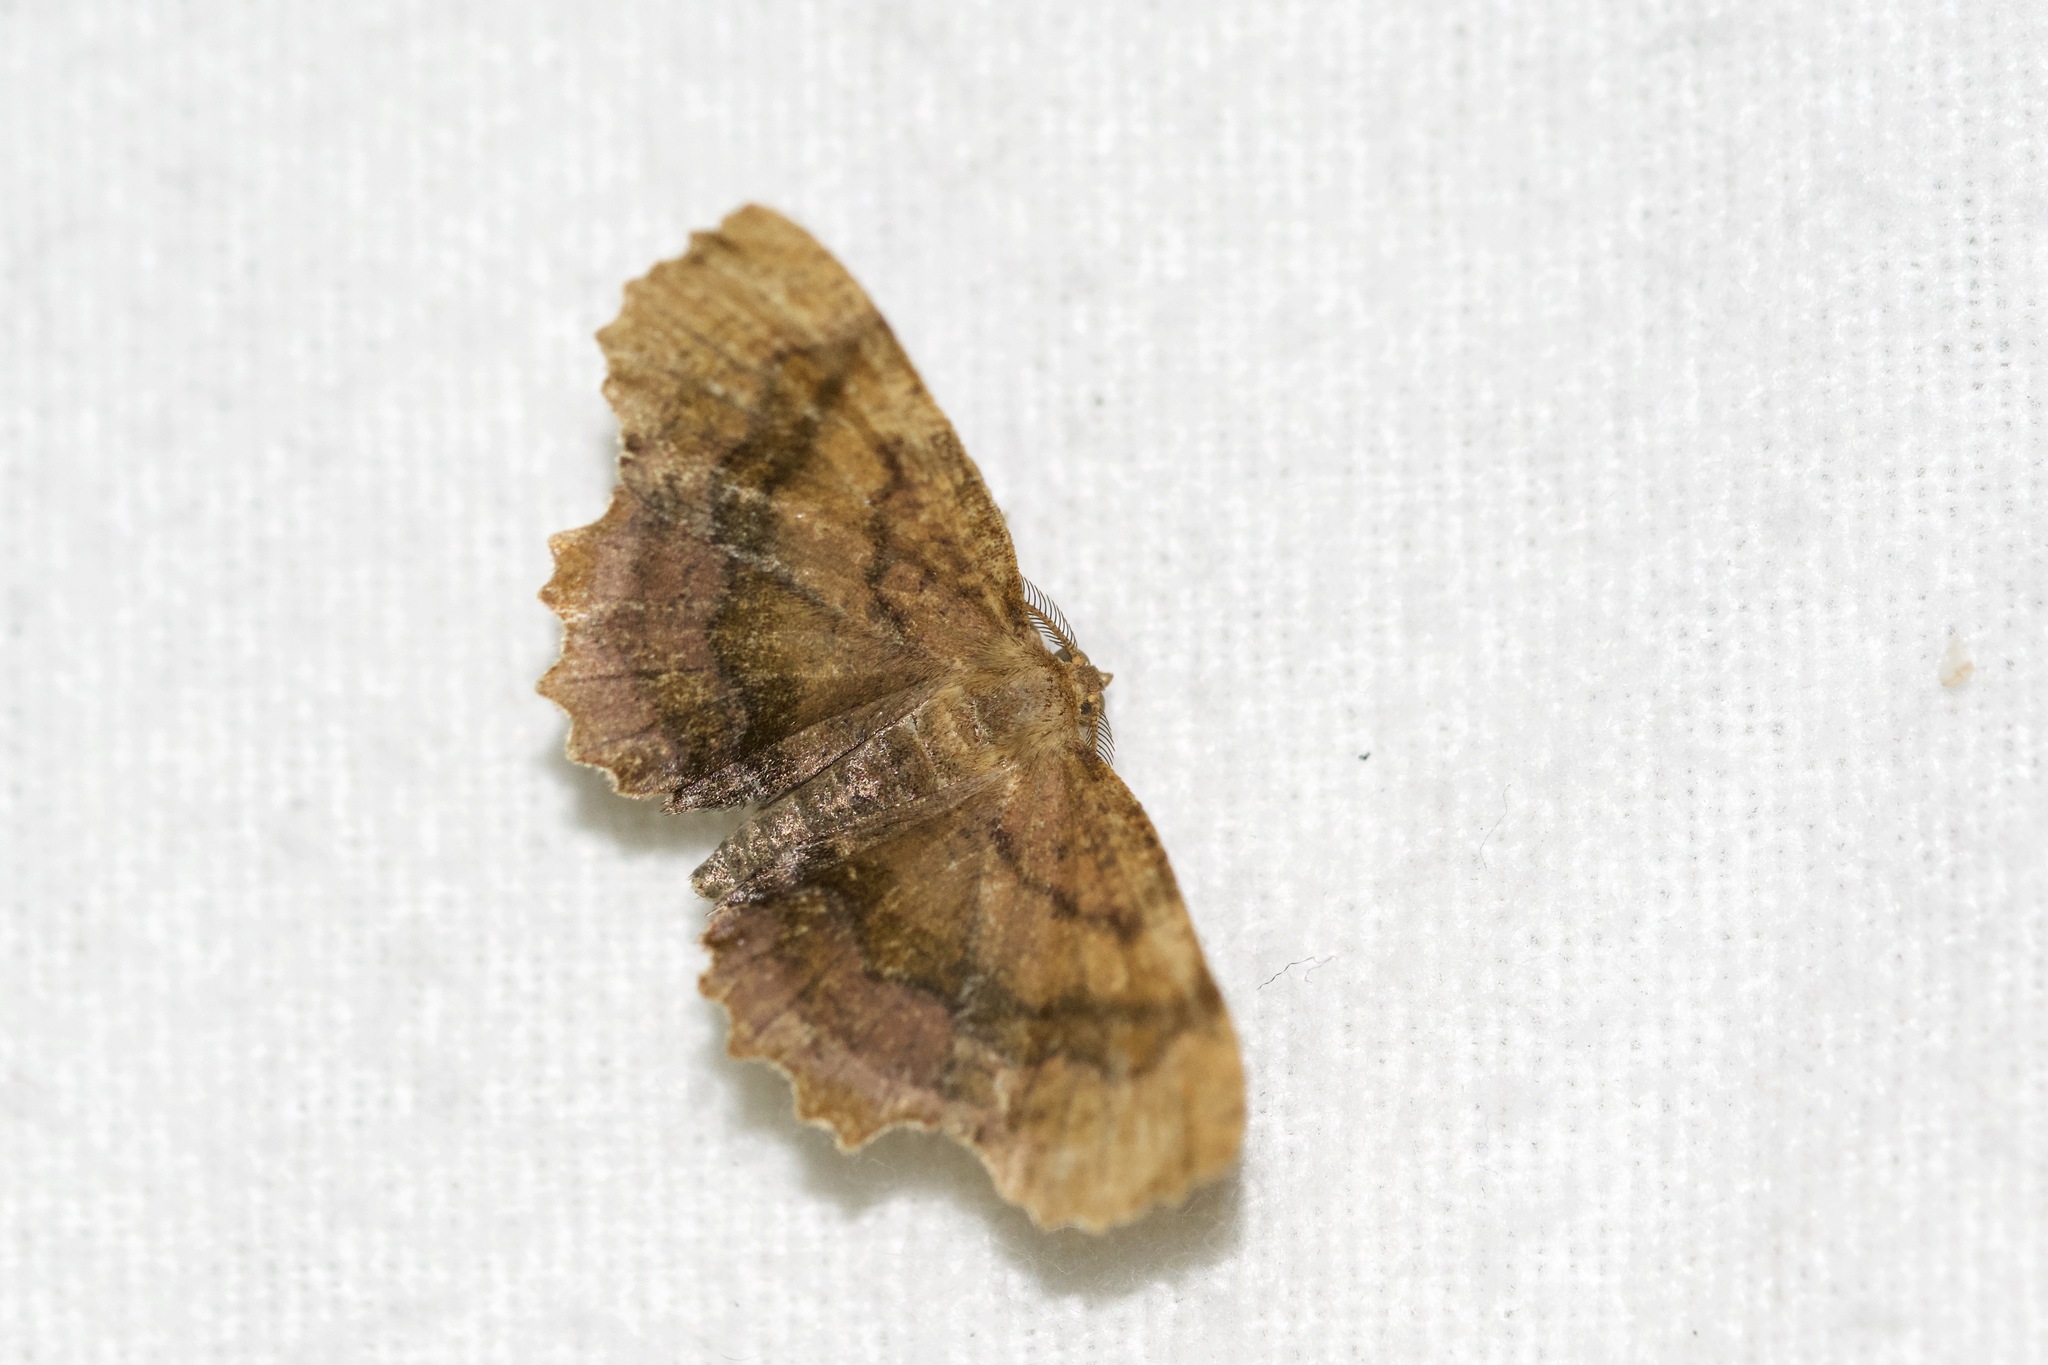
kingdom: Animalia
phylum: Arthropoda
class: Insecta
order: Lepidoptera
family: Geometridae
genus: Cepphis
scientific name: Cepphis armataria
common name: Scallop moth
